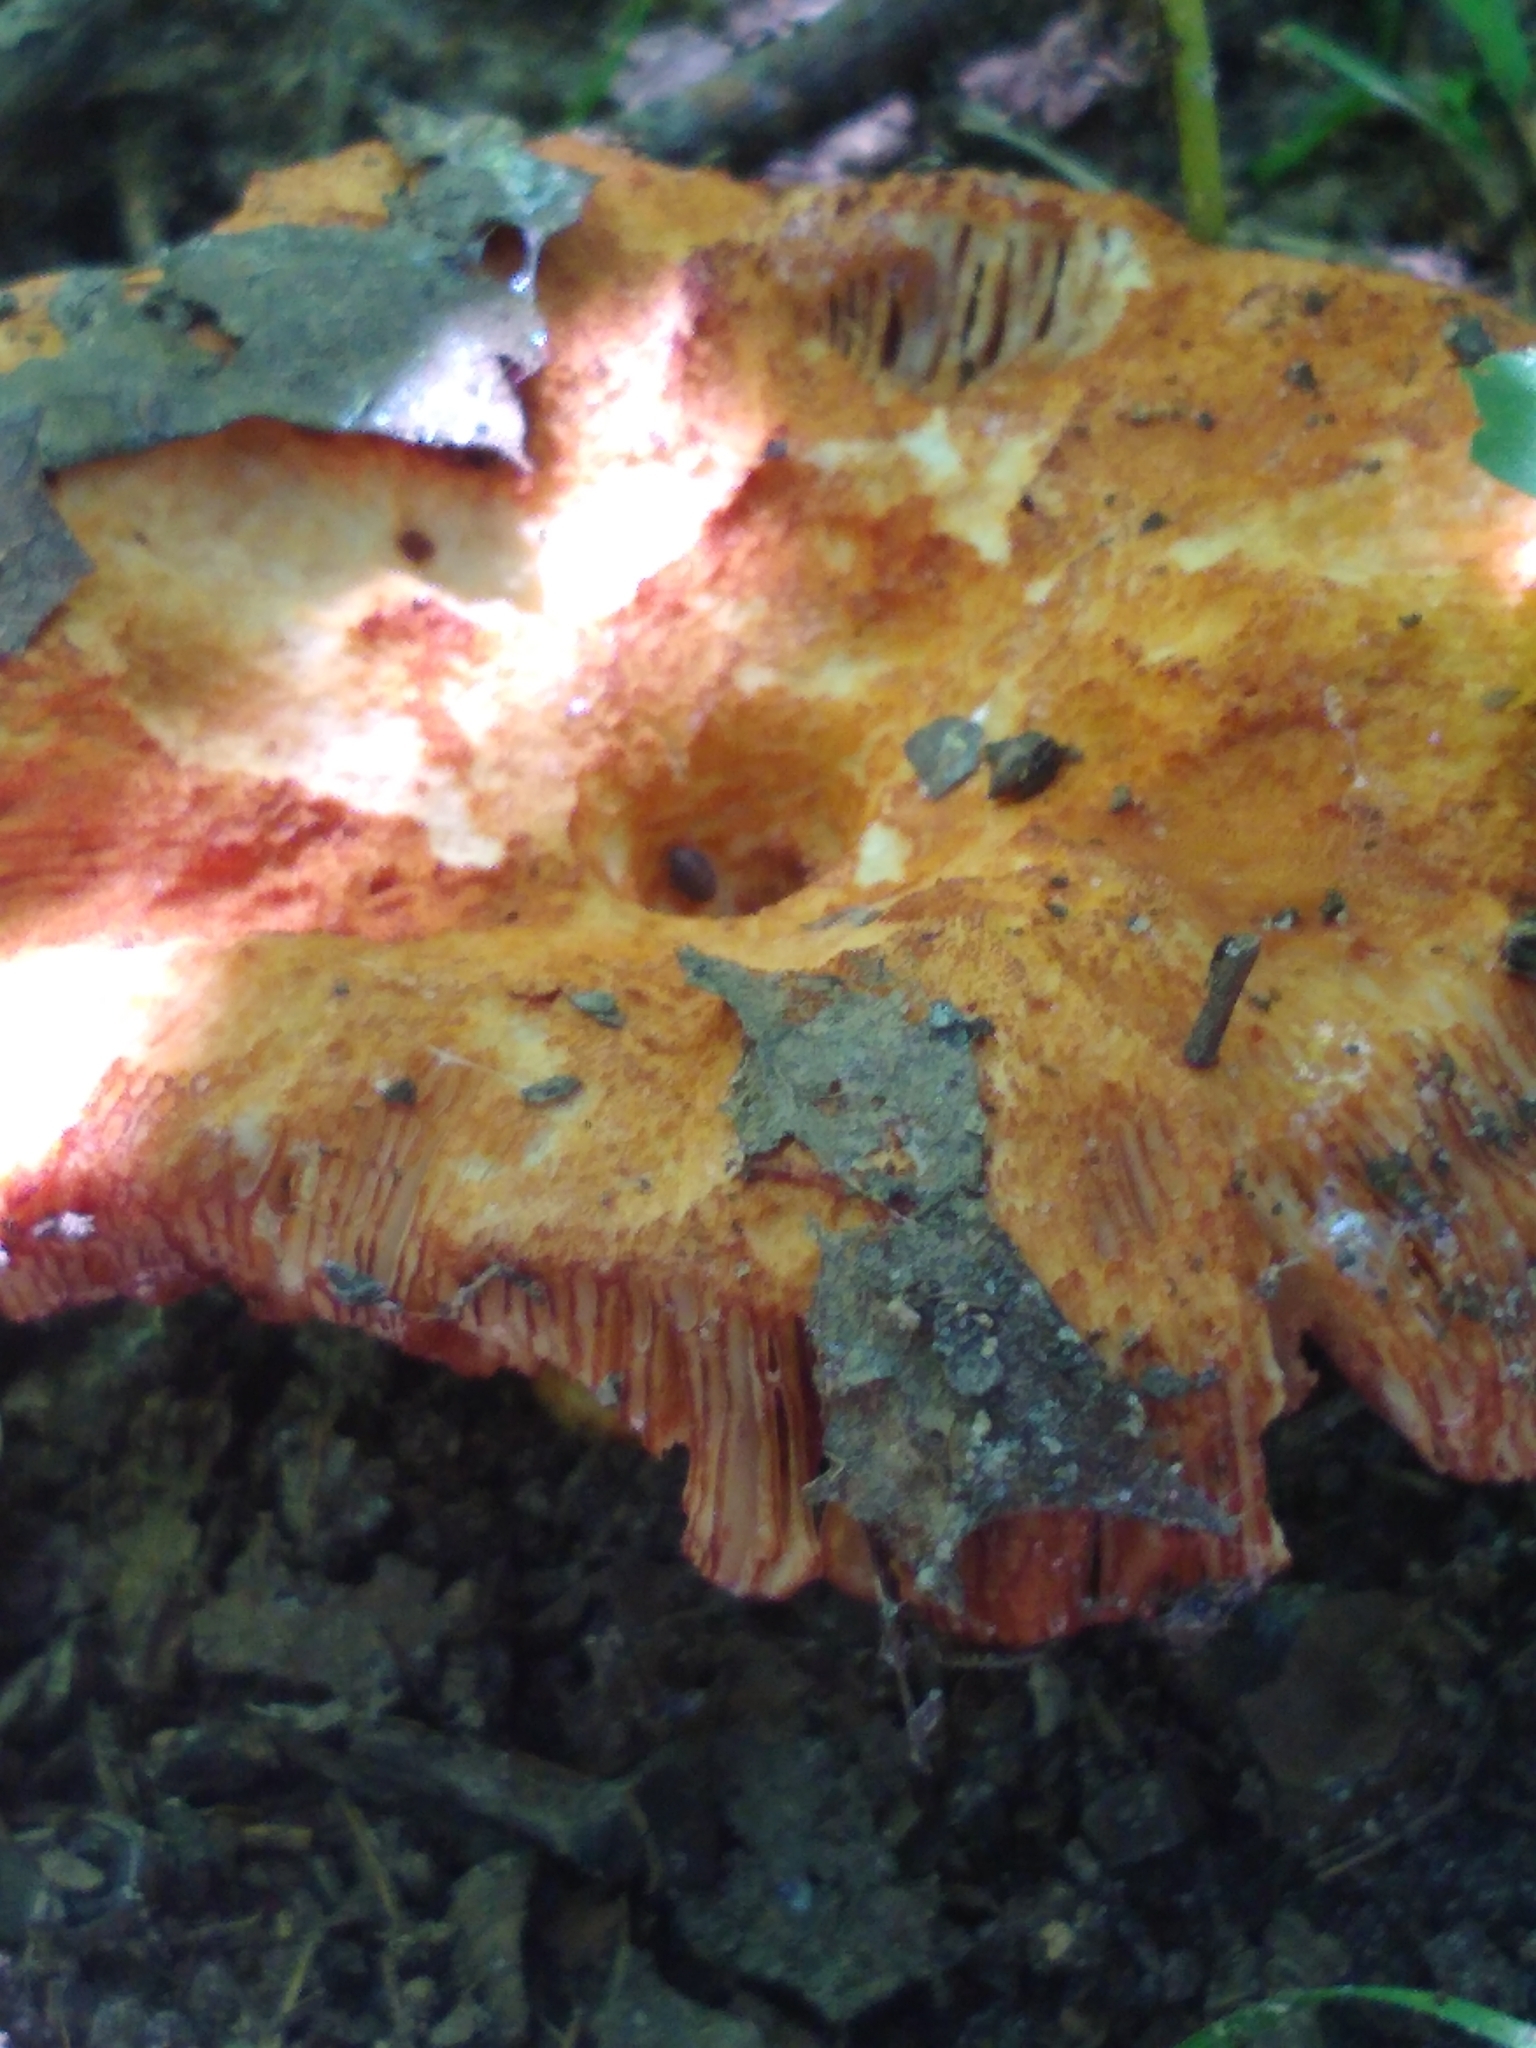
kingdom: Fungi
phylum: Ascomycota
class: Sordariomycetes
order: Hypocreales
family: Hypocreaceae
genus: Hypomyces
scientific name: Hypomyces lactifluorum
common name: Lobster mushroom
